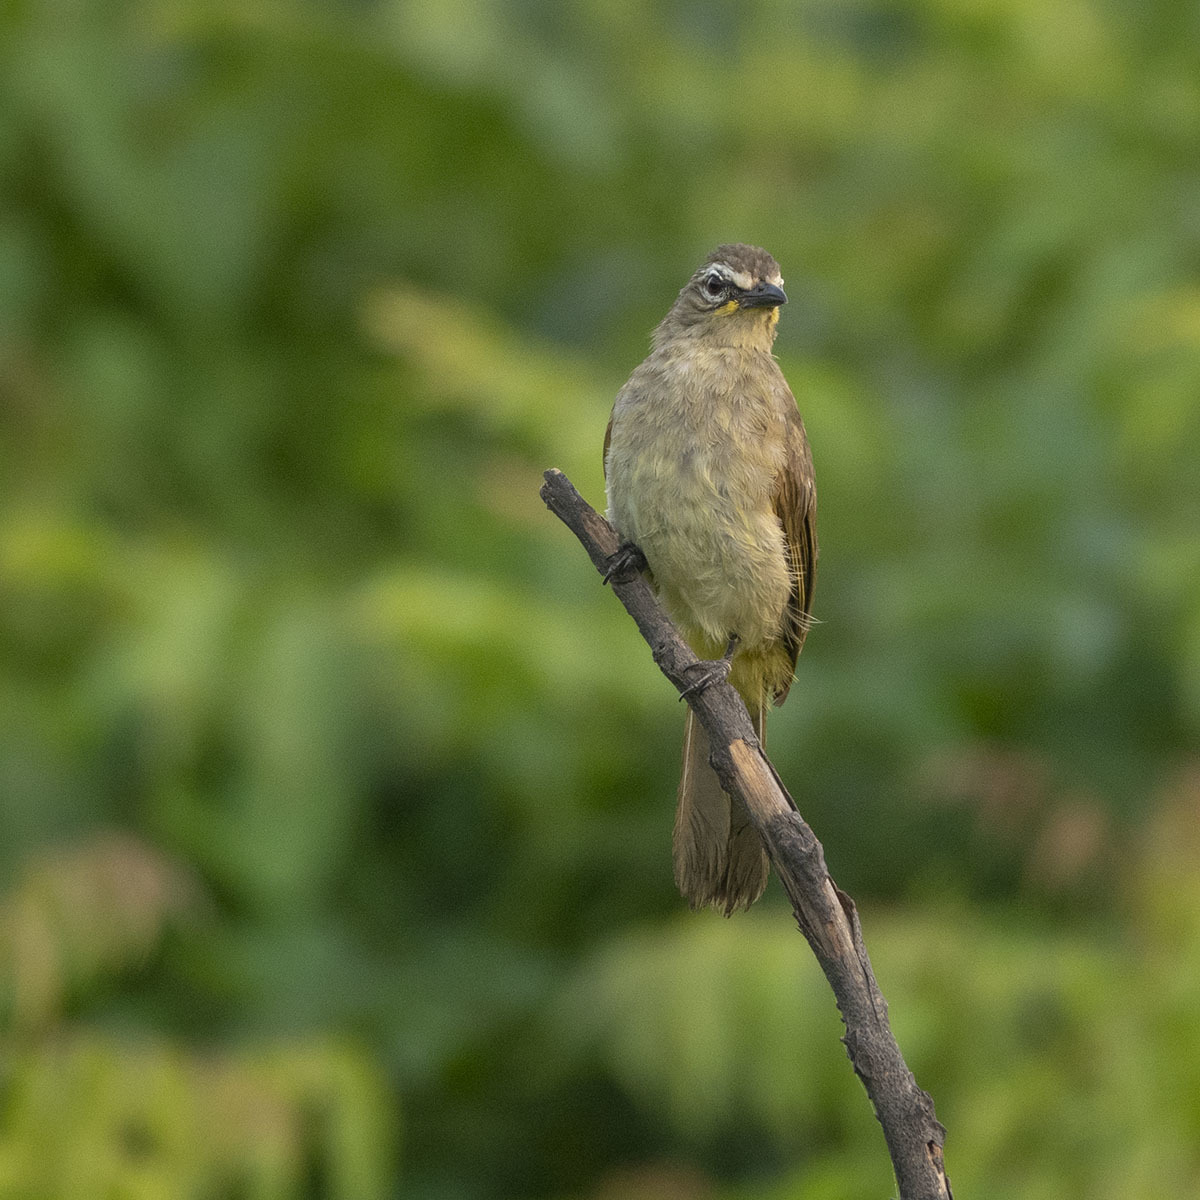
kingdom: Animalia
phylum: Chordata
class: Aves
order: Passeriformes
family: Pycnonotidae
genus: Pycnonotus
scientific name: Pycnonotus luteolus
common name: White-browed bulbul
